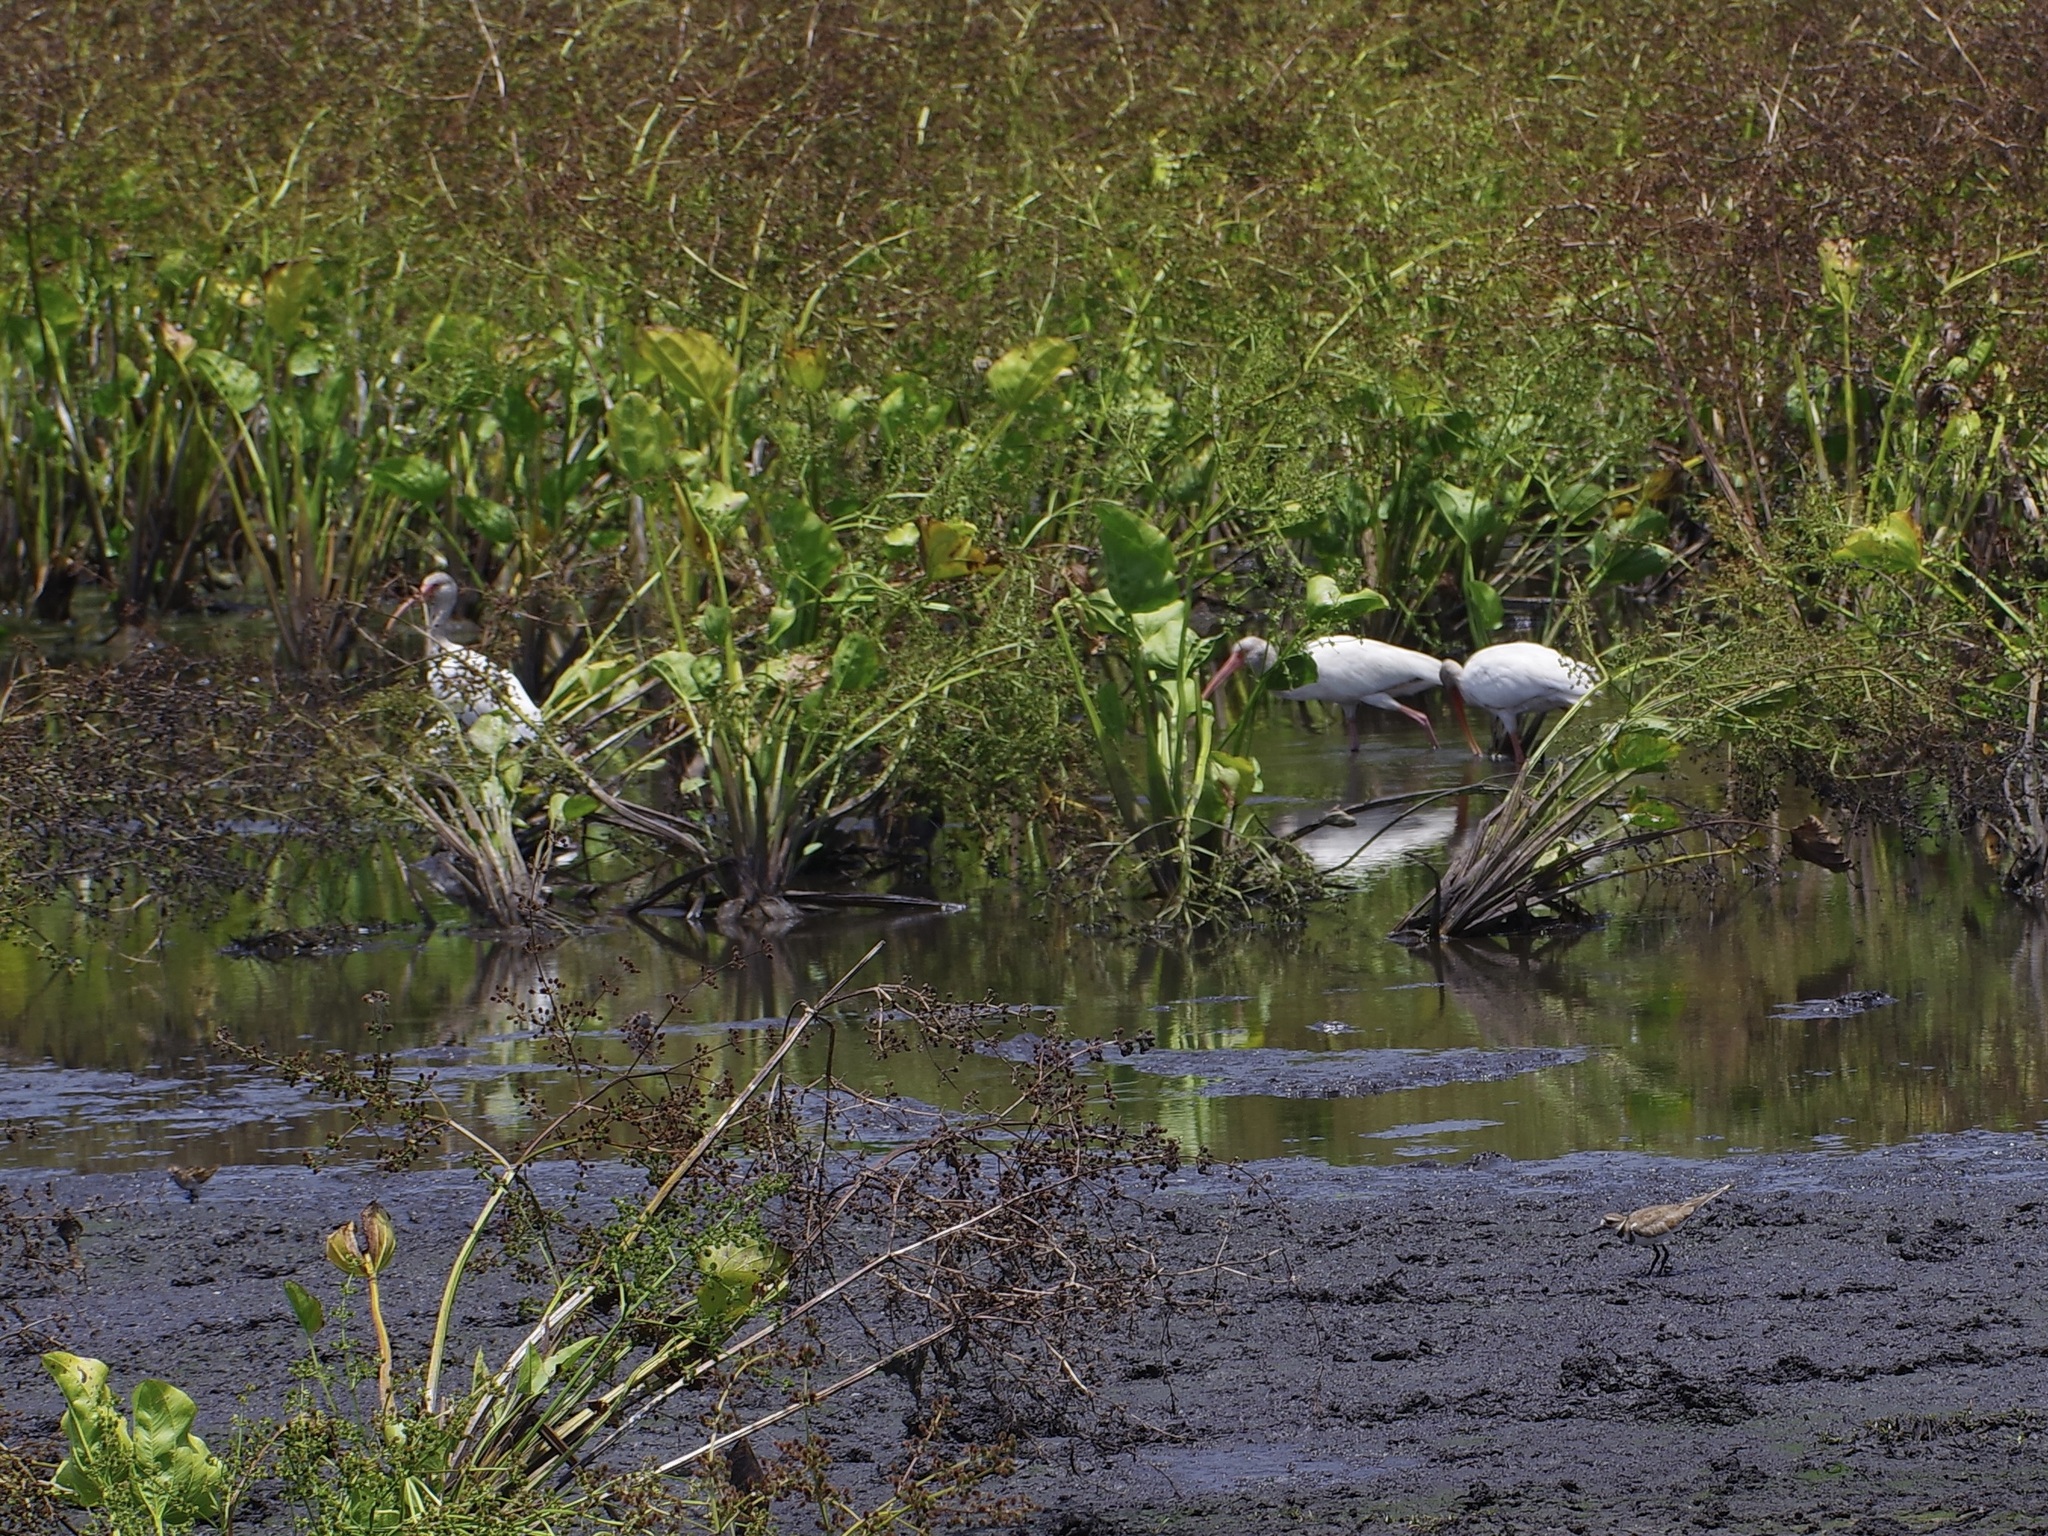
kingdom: Animalia
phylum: Chordata
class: Aves
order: Pelecaniformes
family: Threskiornithidae
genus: Eudocimus
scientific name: Eudocimus albus
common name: White ibis
